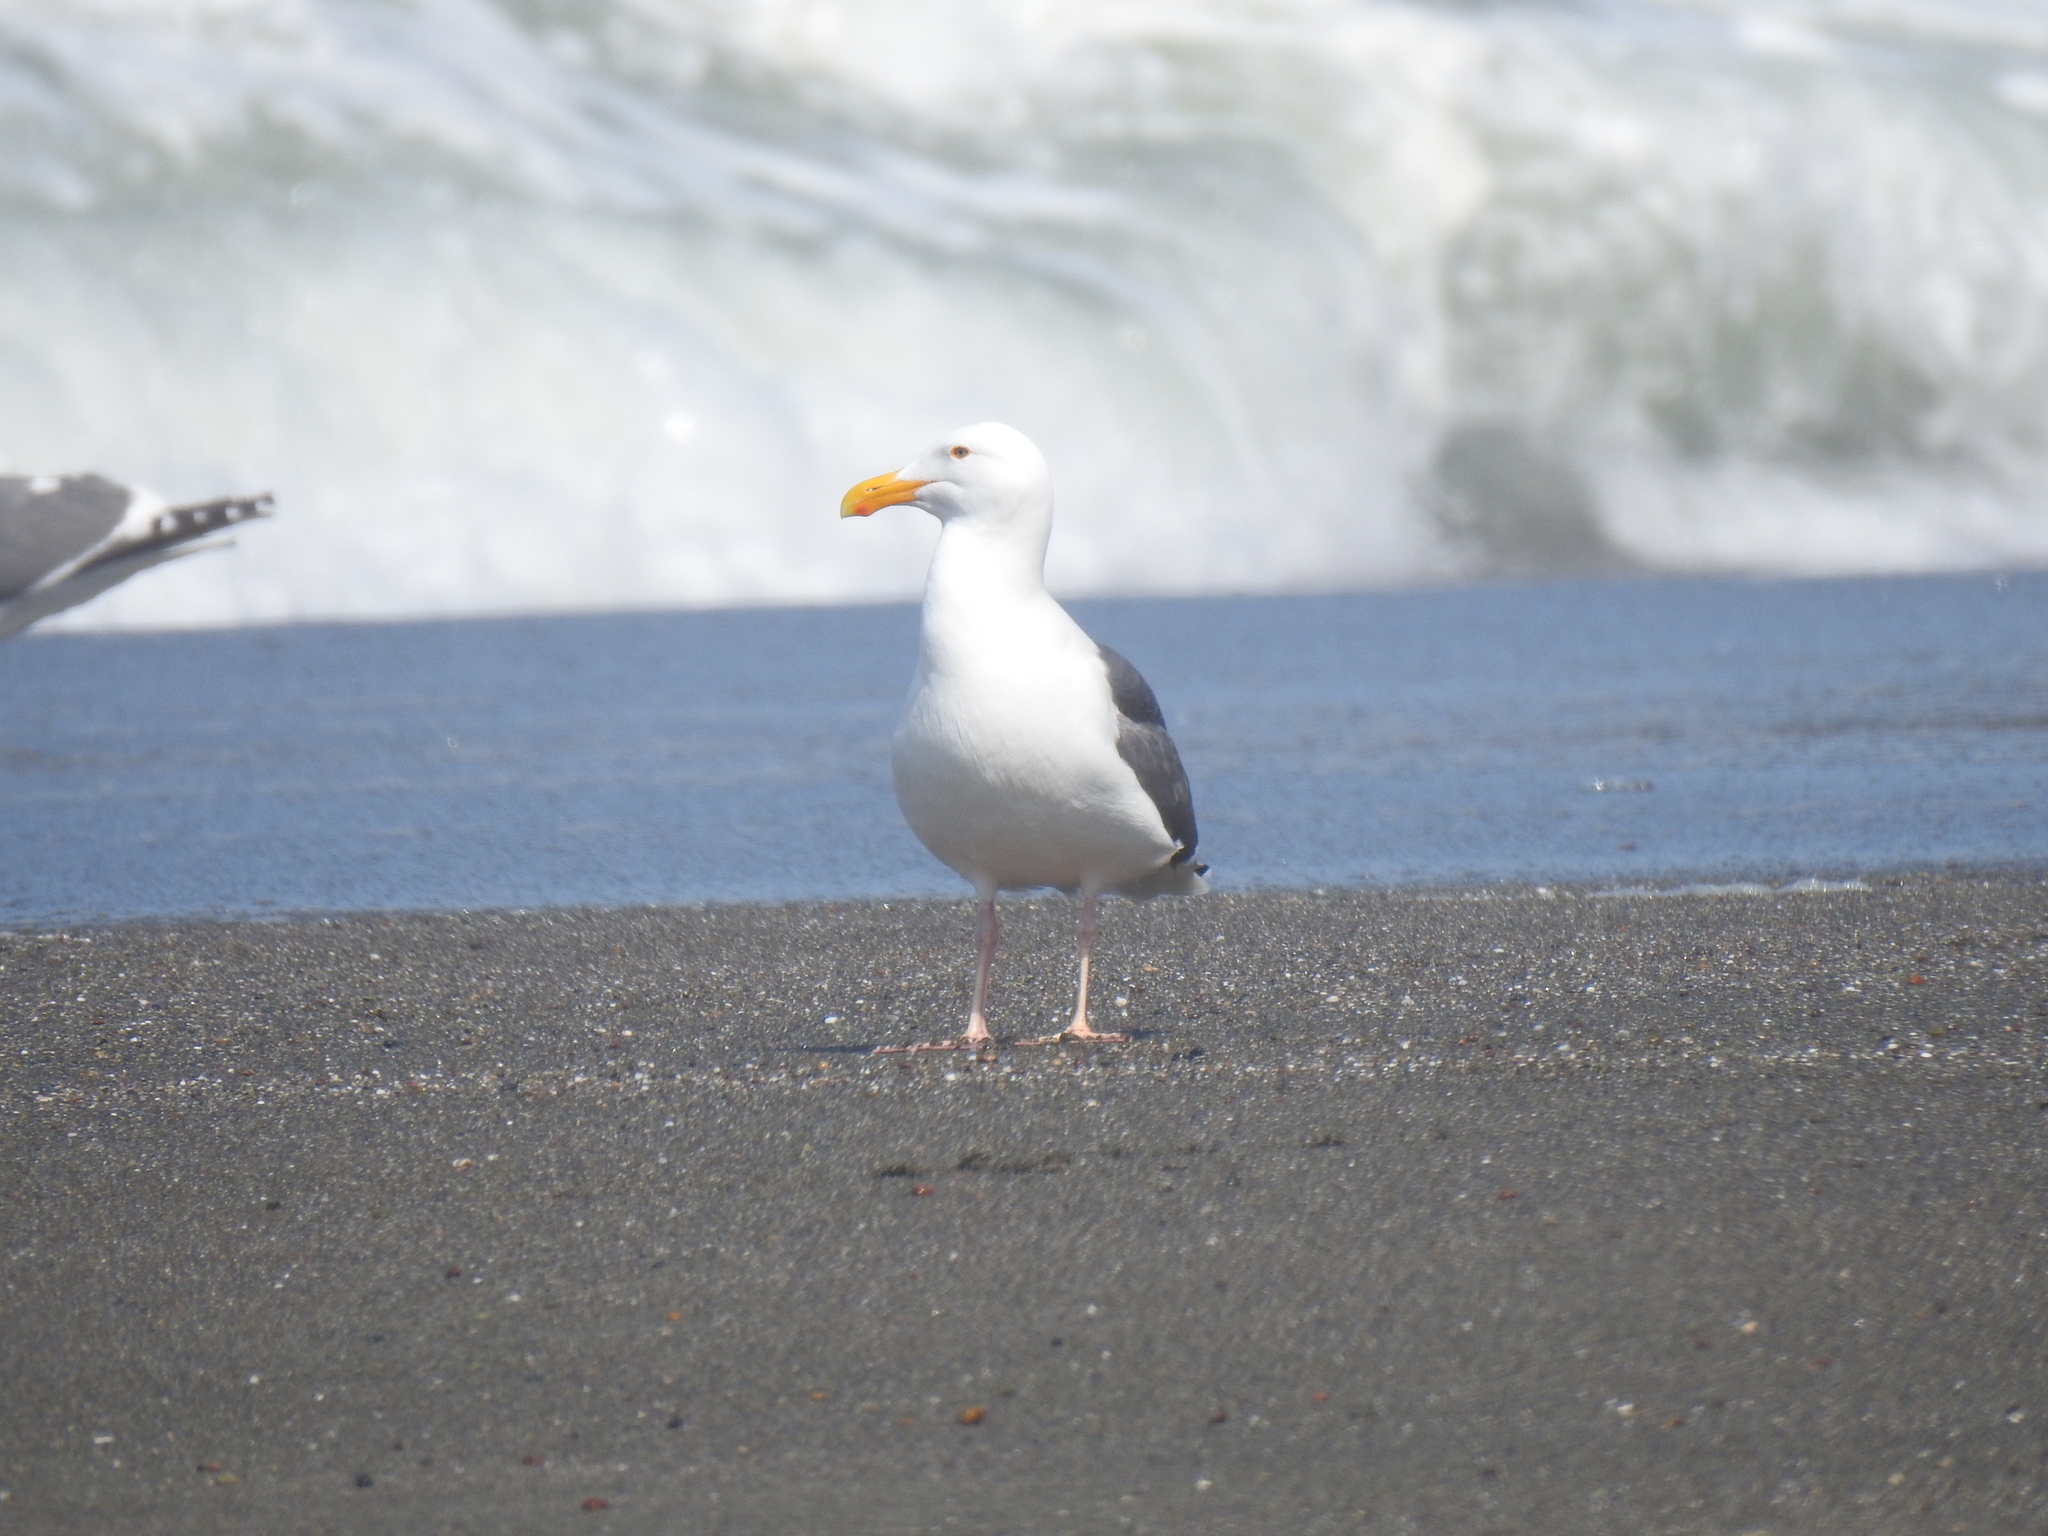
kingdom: Animalia
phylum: Chordata
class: Aves
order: Charadriiformes
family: Laridae
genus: Larus
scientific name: Larus occidentalis
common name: Western gull
